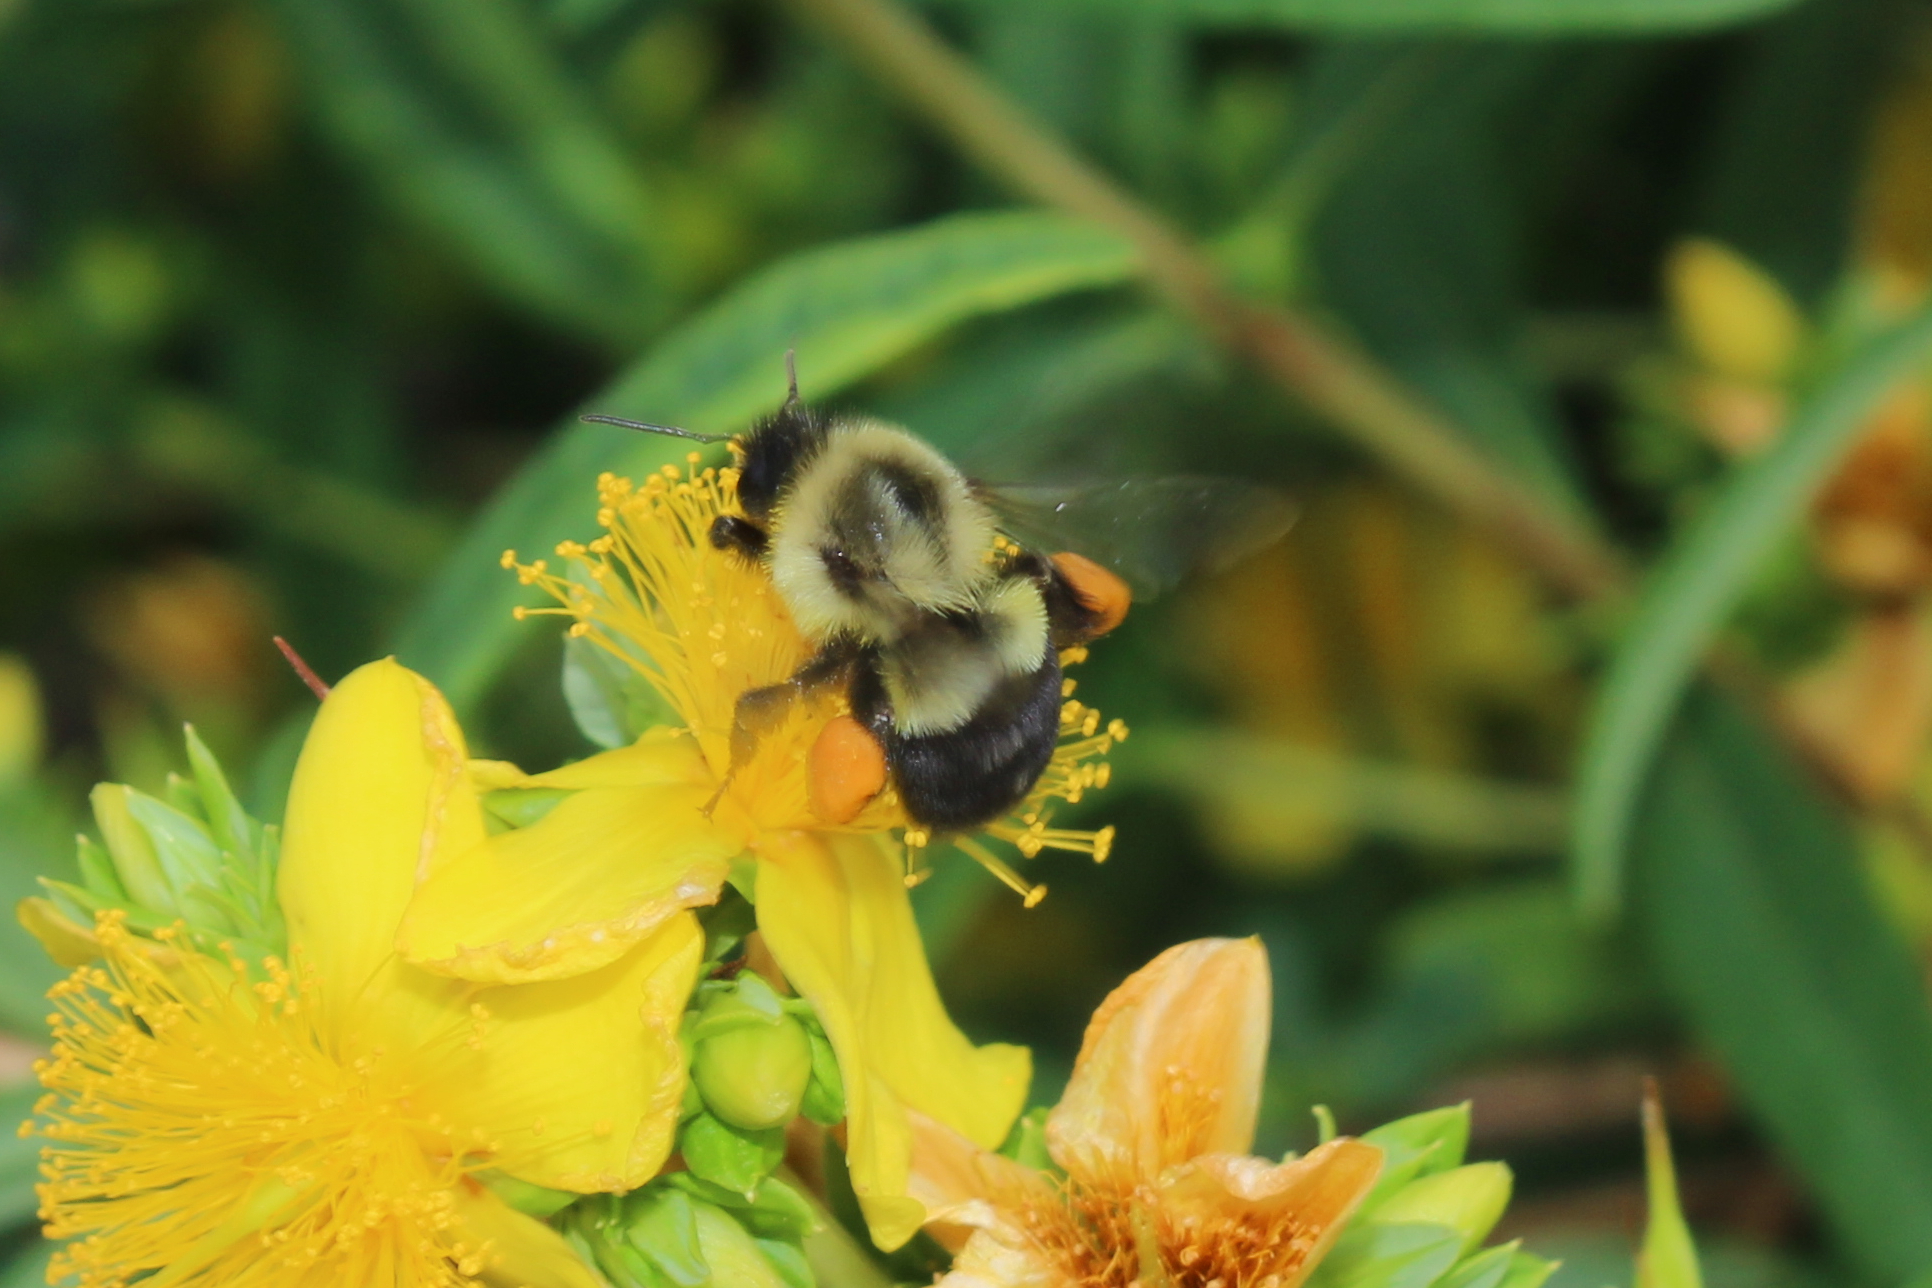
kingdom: Animalia
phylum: Arthropoda
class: Insecta
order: Hymenoptera
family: Apidae
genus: Bombus
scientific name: Bombus impatiens
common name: Common eastern bumble bee
